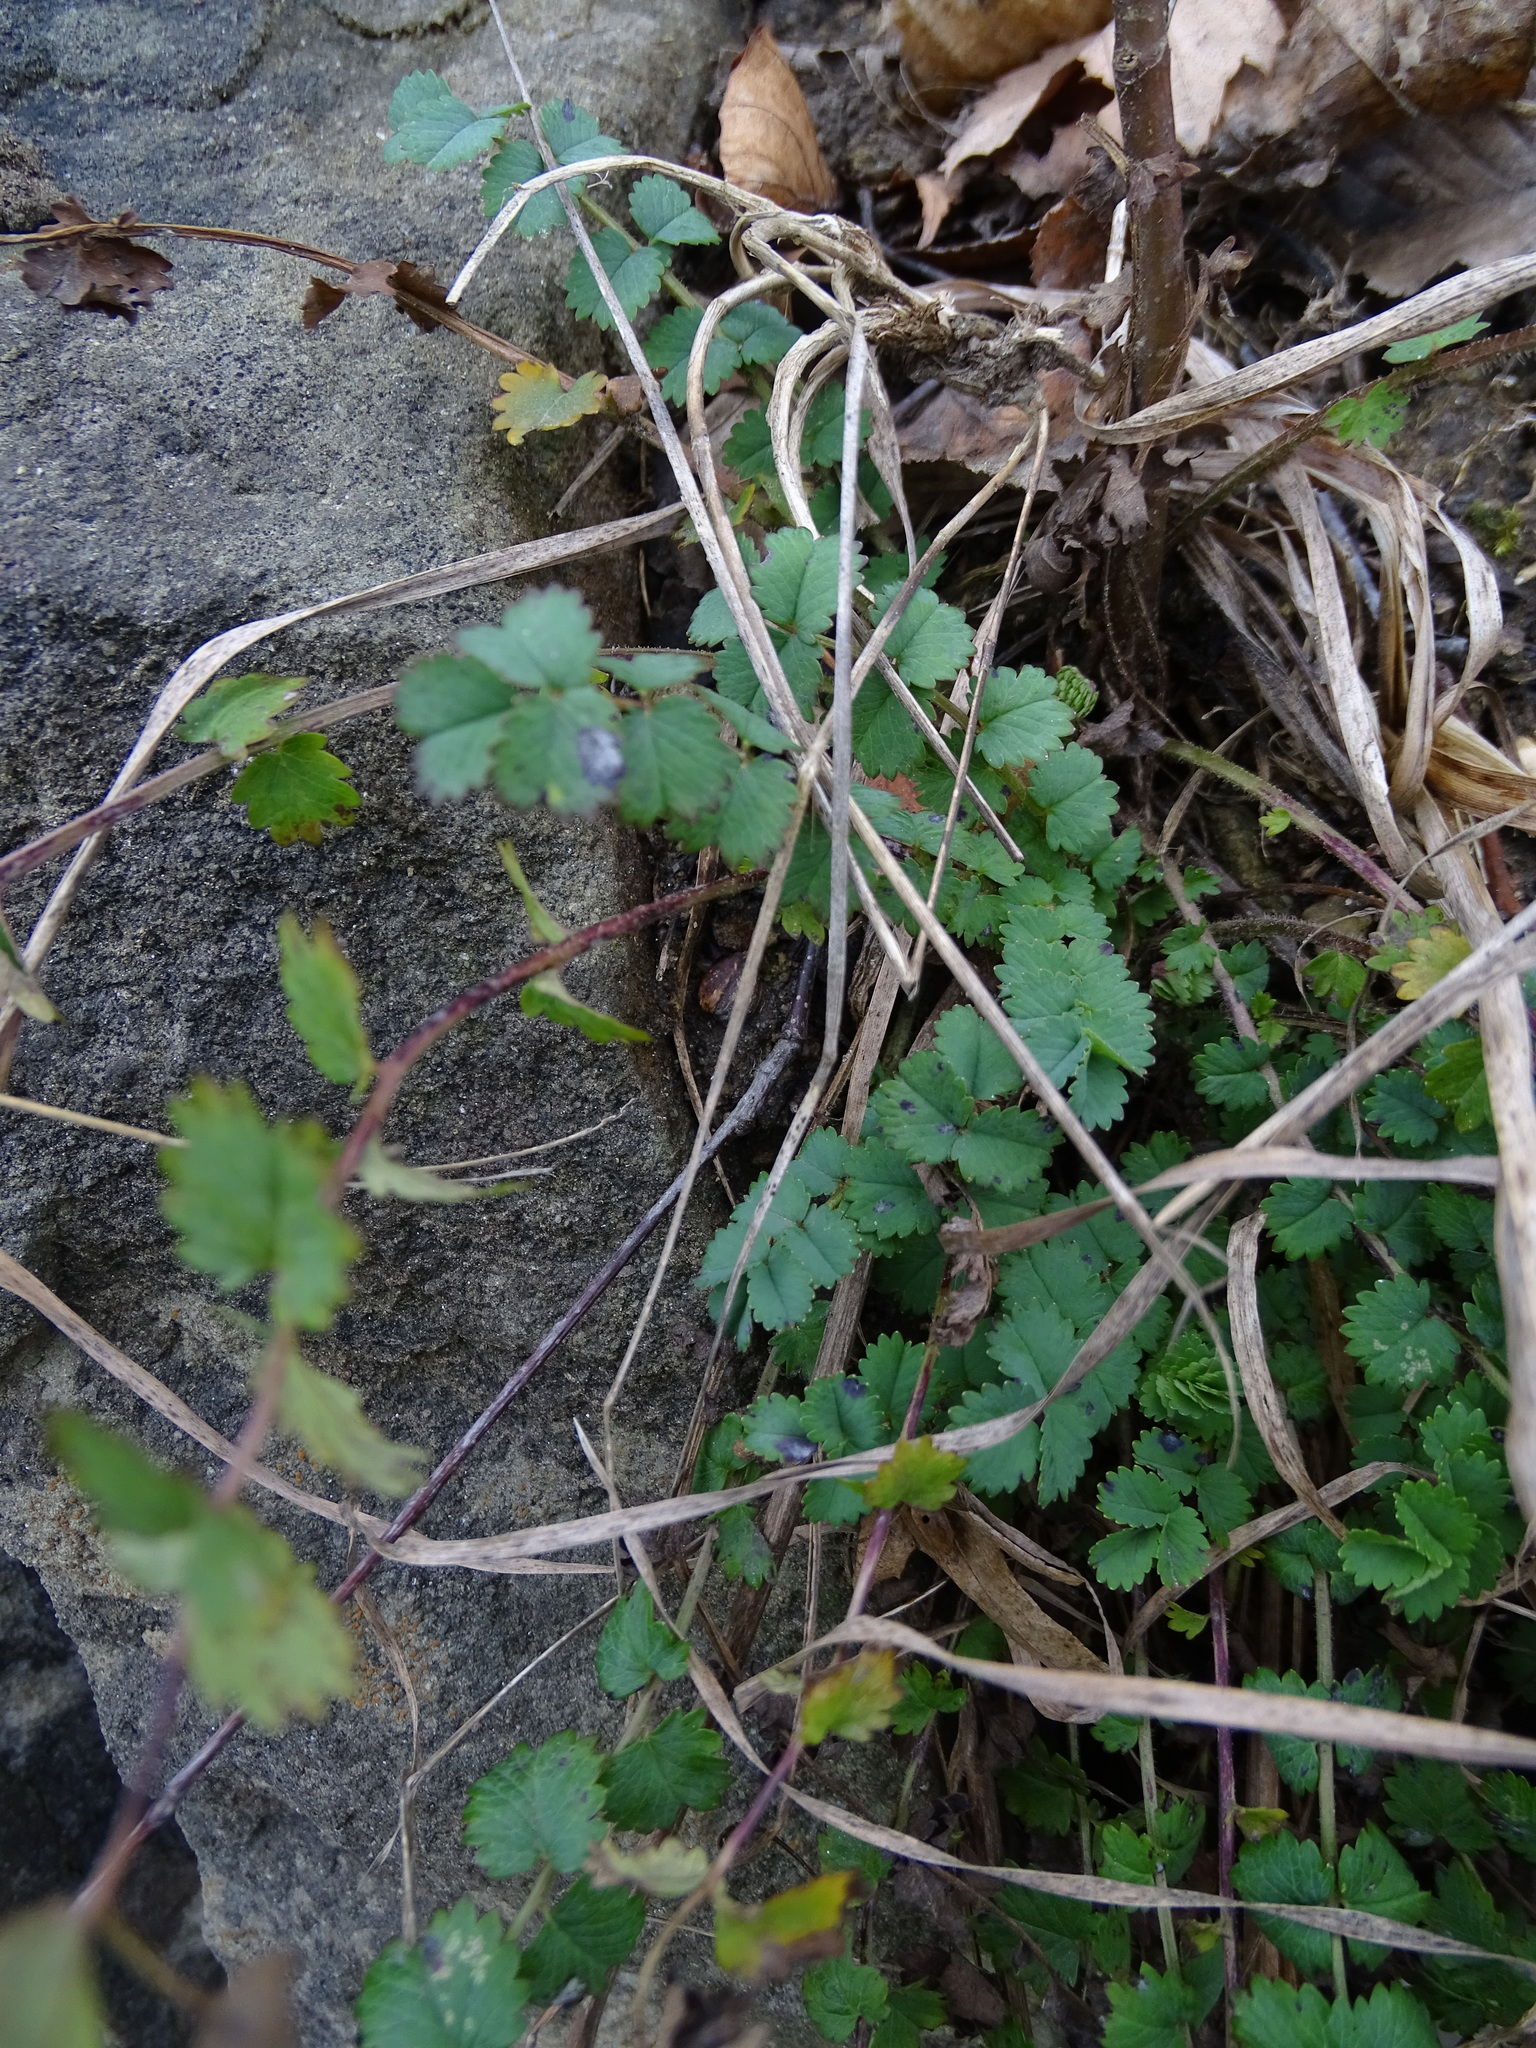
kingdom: Plantae
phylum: Tracheophyta
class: Magnoliopsida
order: Rosales
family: Rosaceae
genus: Poterium
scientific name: Poterium sanguisorba
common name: Salad burnet
